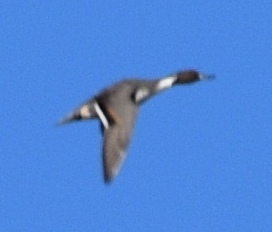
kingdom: Animalia
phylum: Chordata
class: Aves
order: Anseriformes
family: Anatidae
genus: Anas
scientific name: Anas acuta
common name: Northern pintail
